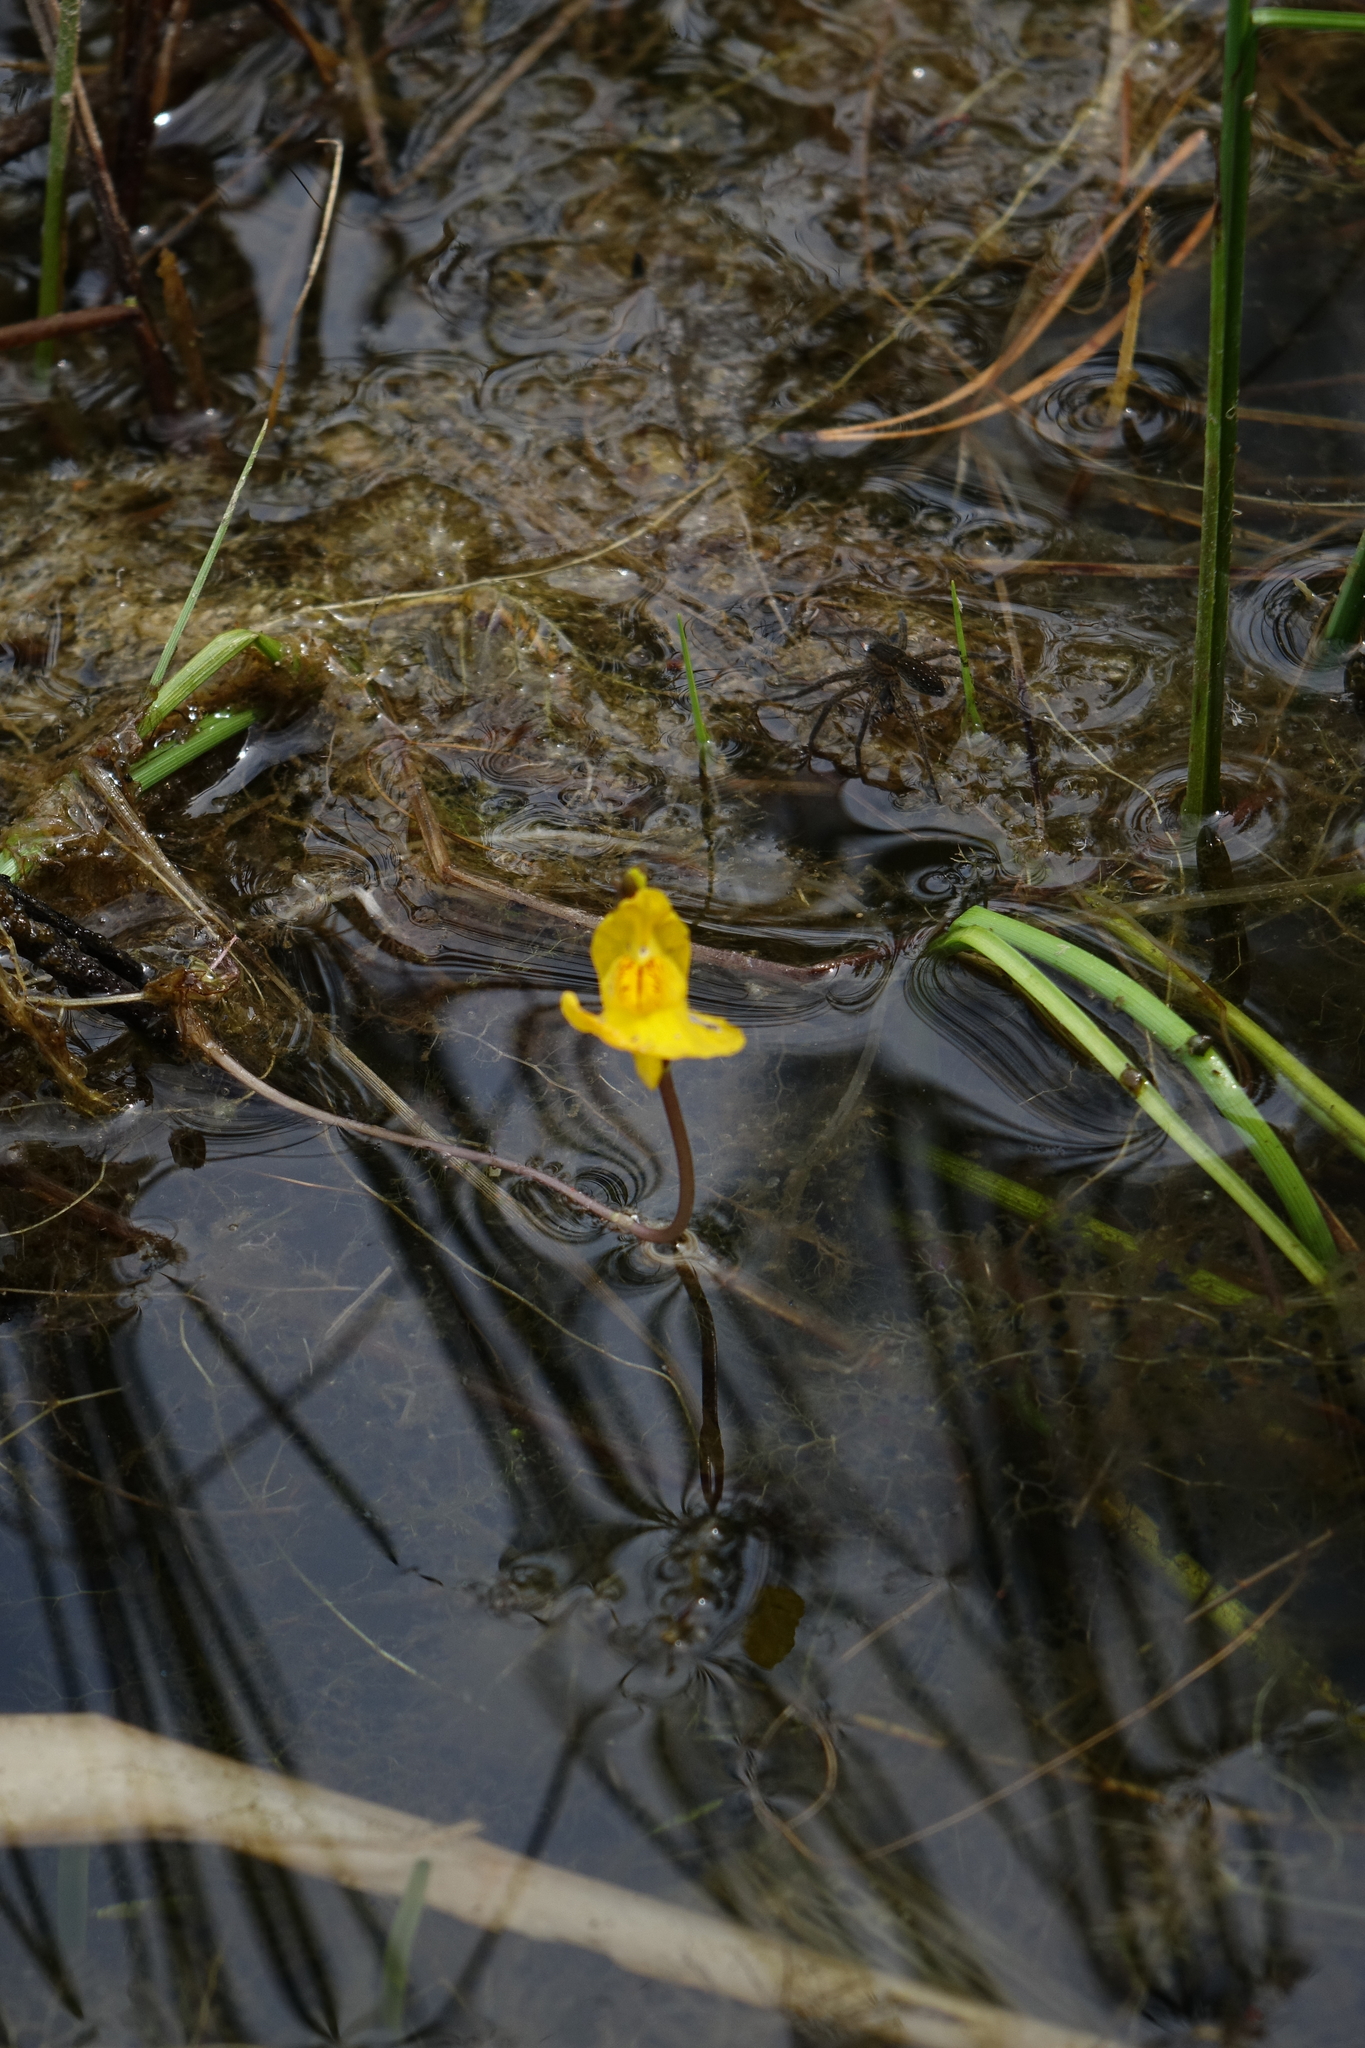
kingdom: Plantae
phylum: Tracheophyta
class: Magnoliopsida
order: Lamiales
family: Lentibulariaceae
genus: Utricularia
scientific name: Utricularia australis
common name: Bladderwort
